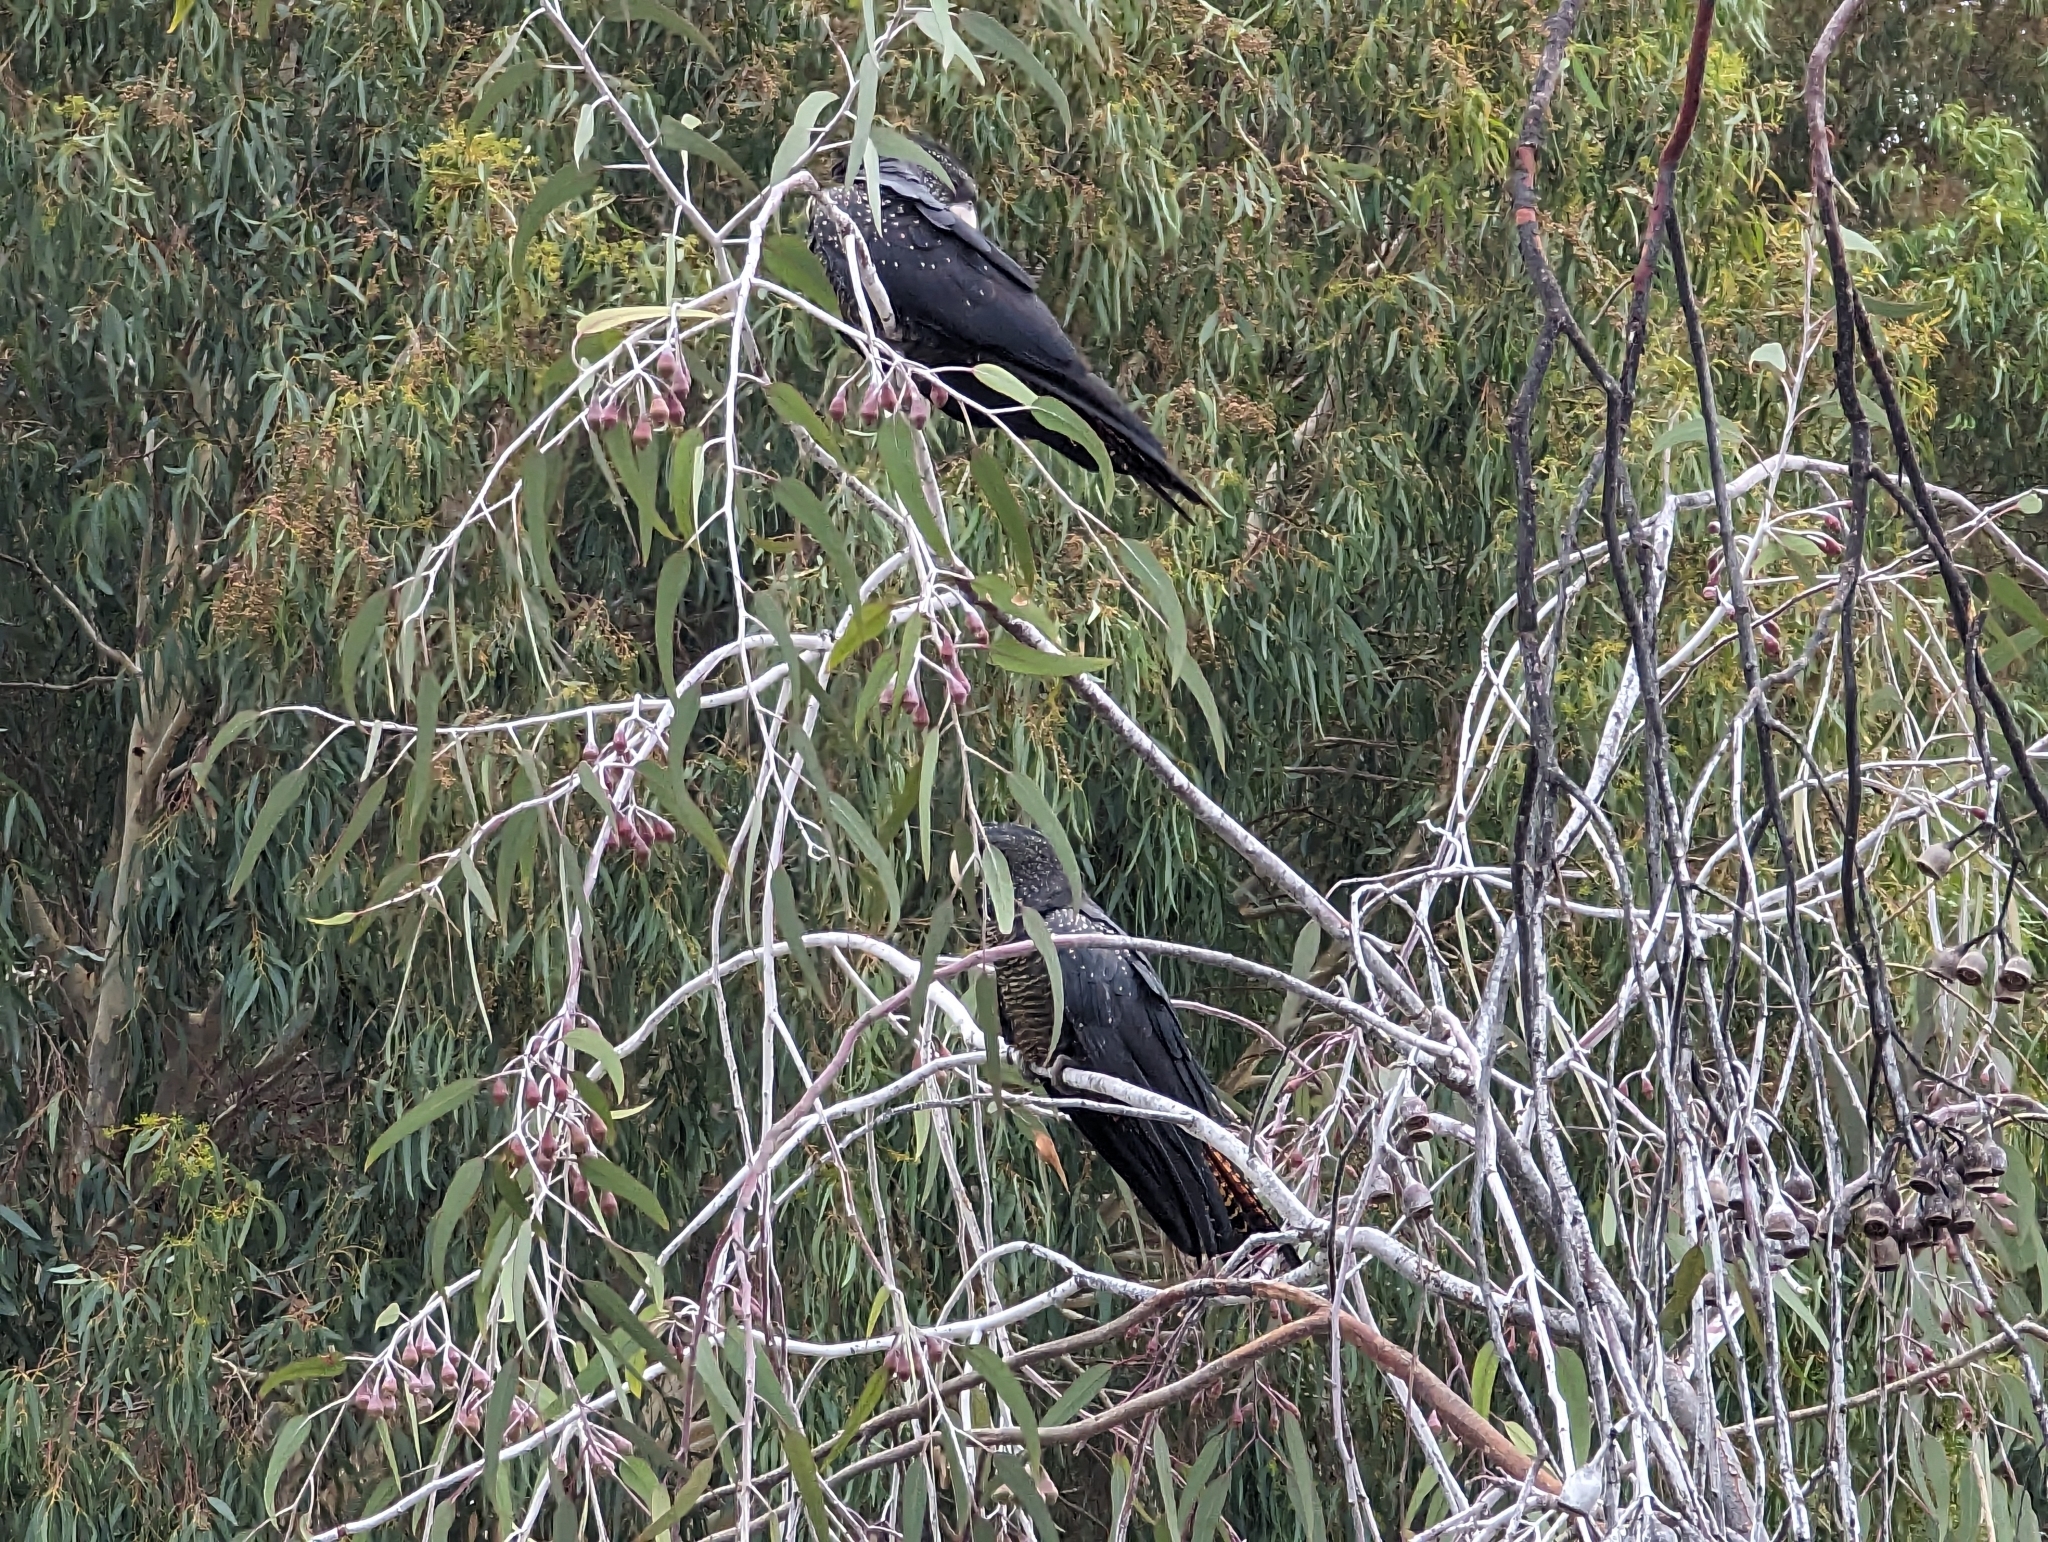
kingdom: Animalia
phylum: Chordata
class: Aves
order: Psittaciformes
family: Psittacidae
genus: Calyptorhynchus
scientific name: Calyptorhynchus banksii
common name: Red-tailed black cockatoo
